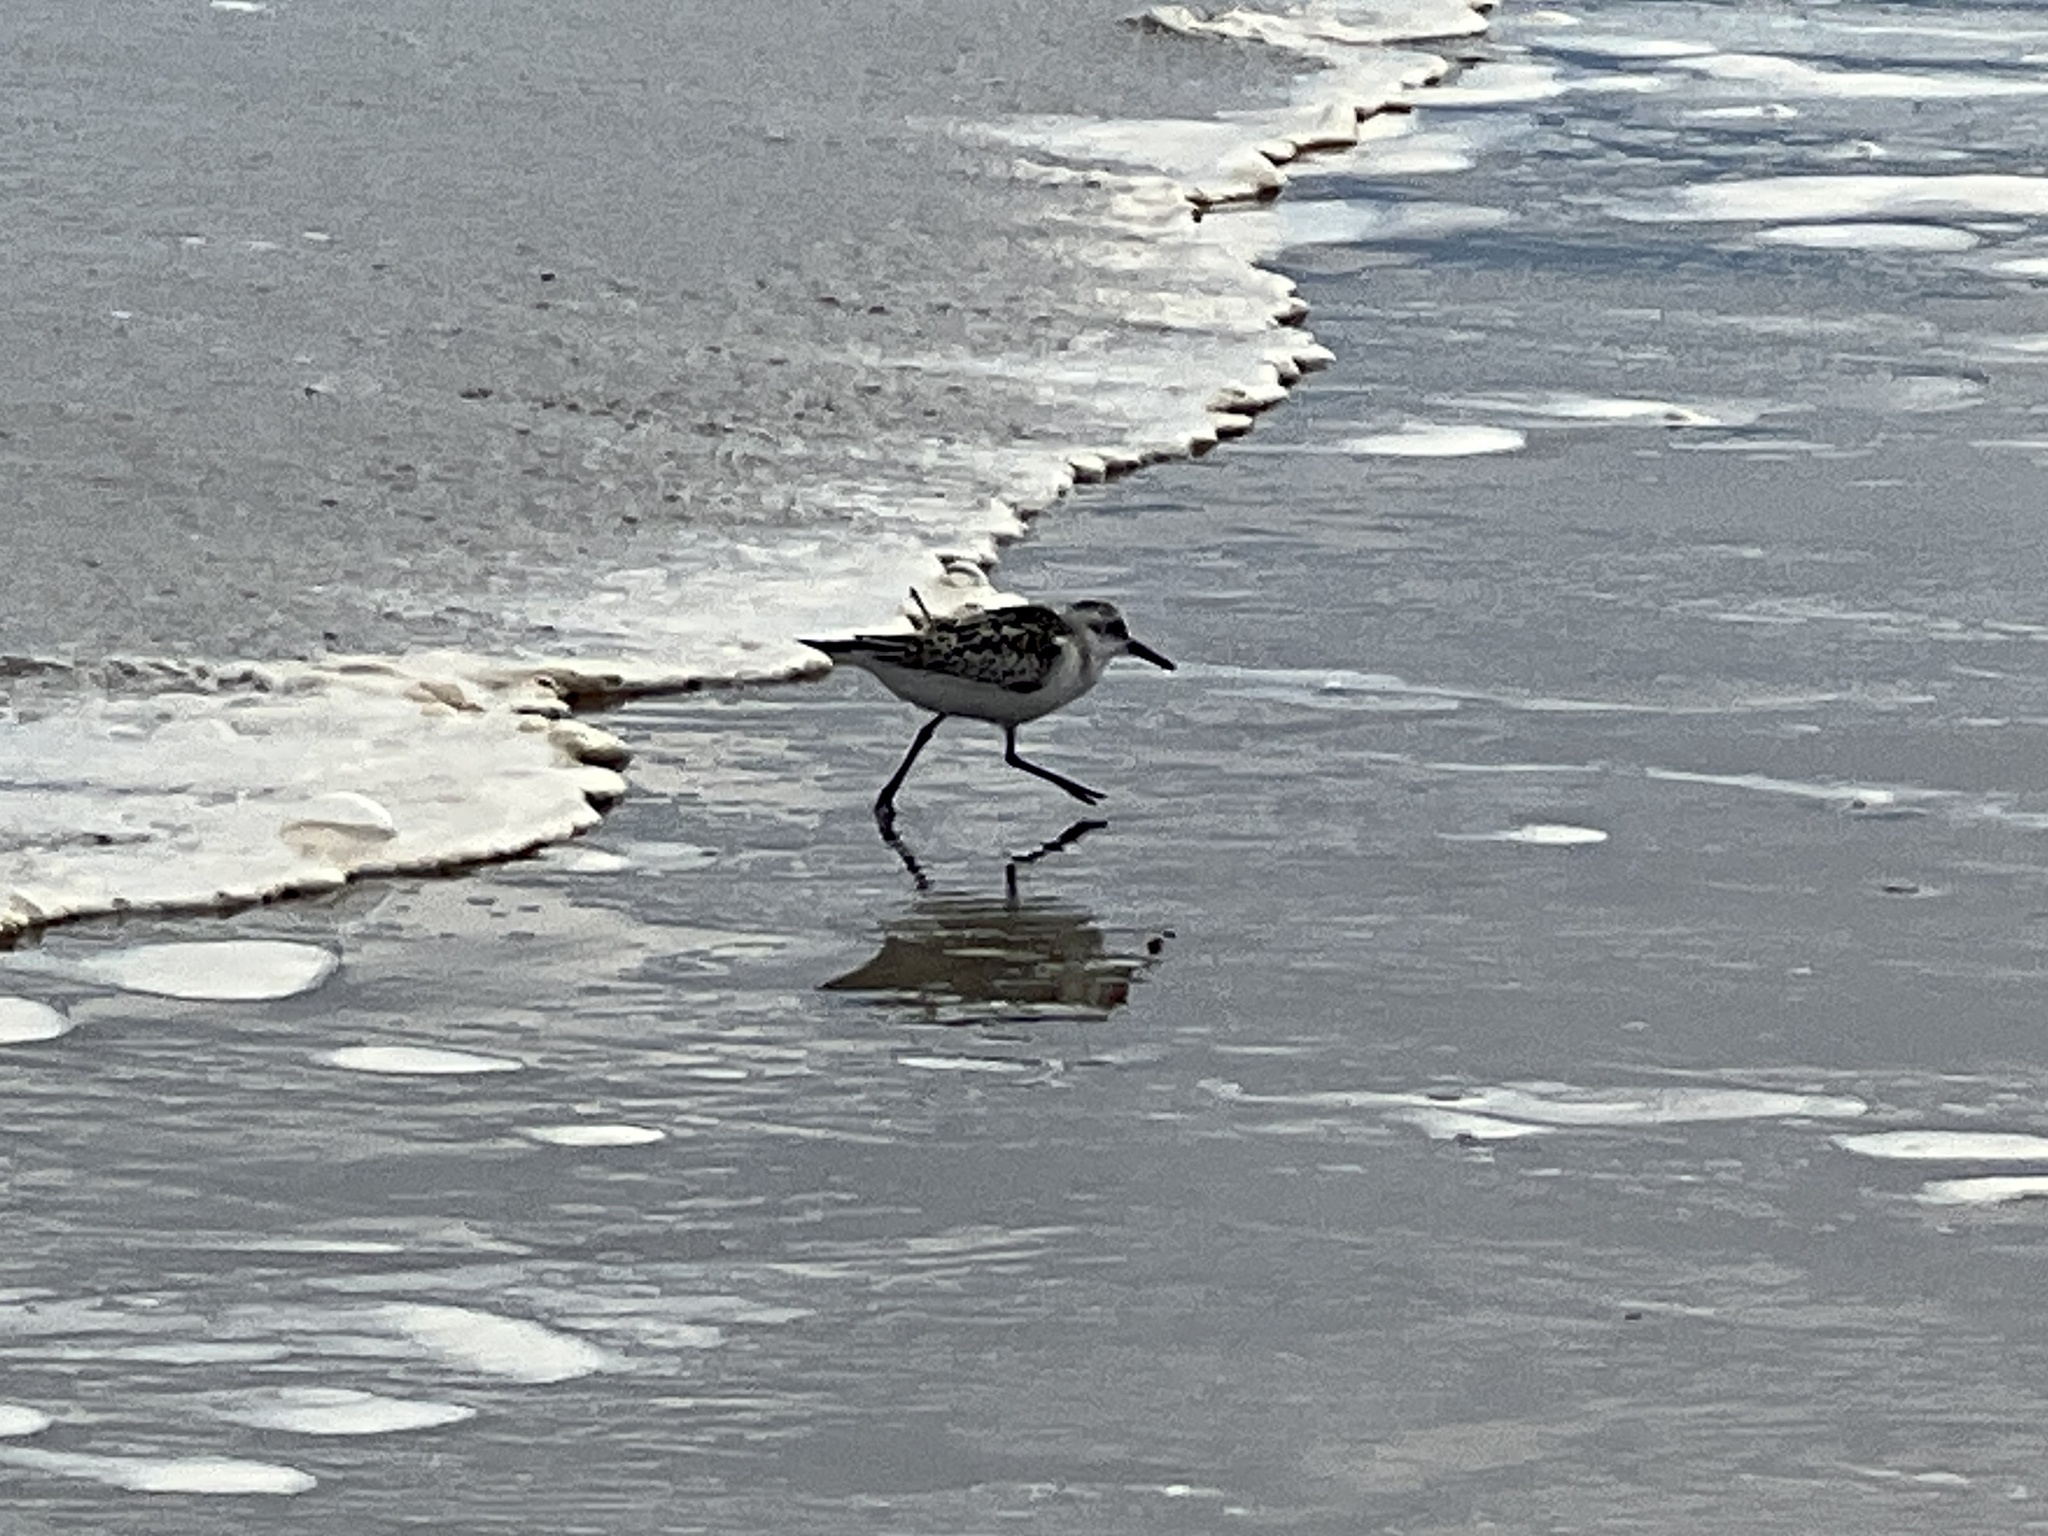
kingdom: Animalia
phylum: Chordata
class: Aves
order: Charadriiformes
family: Scolopacidae
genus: Calidris
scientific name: Calidris alba
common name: Sanderling
